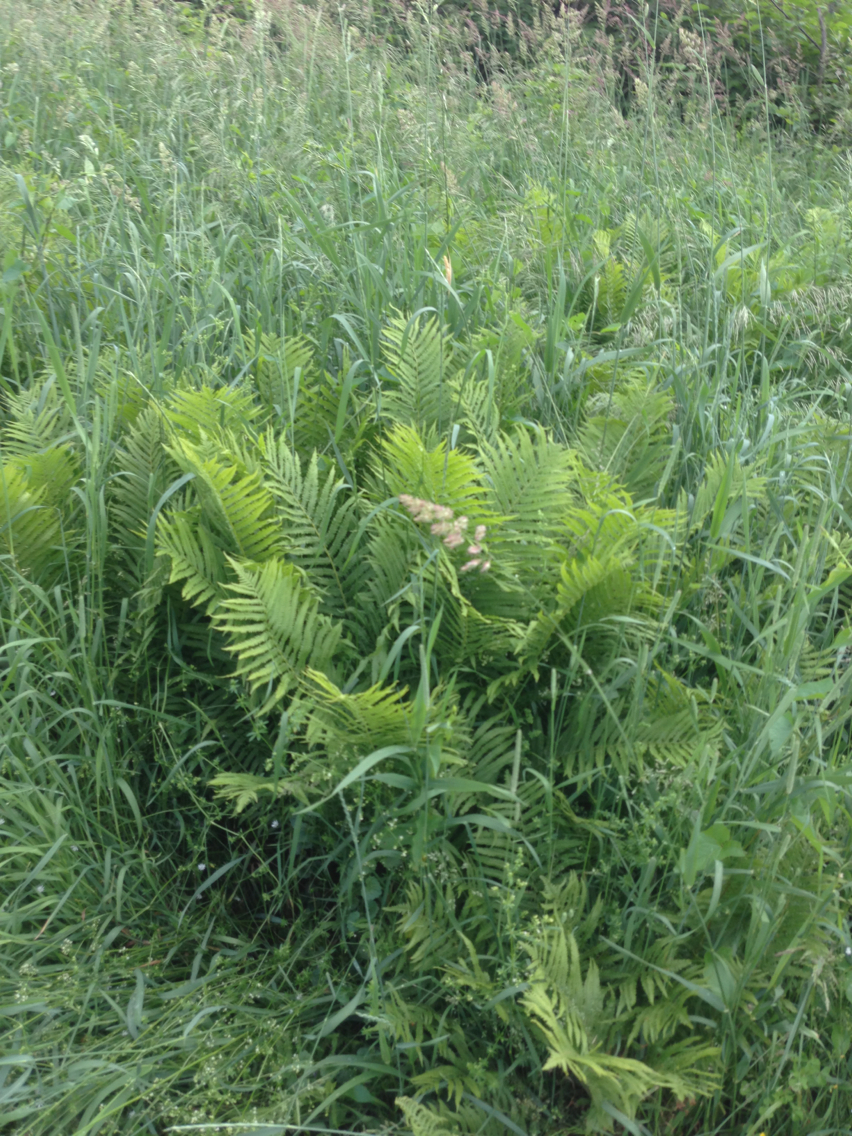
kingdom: Plantae
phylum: Tracheophyta
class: Polypodiopsida
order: Polypodiales
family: Onocleaceae
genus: Matteuccia
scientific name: Matteuccia struthiopteris
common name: Ostrich fern
